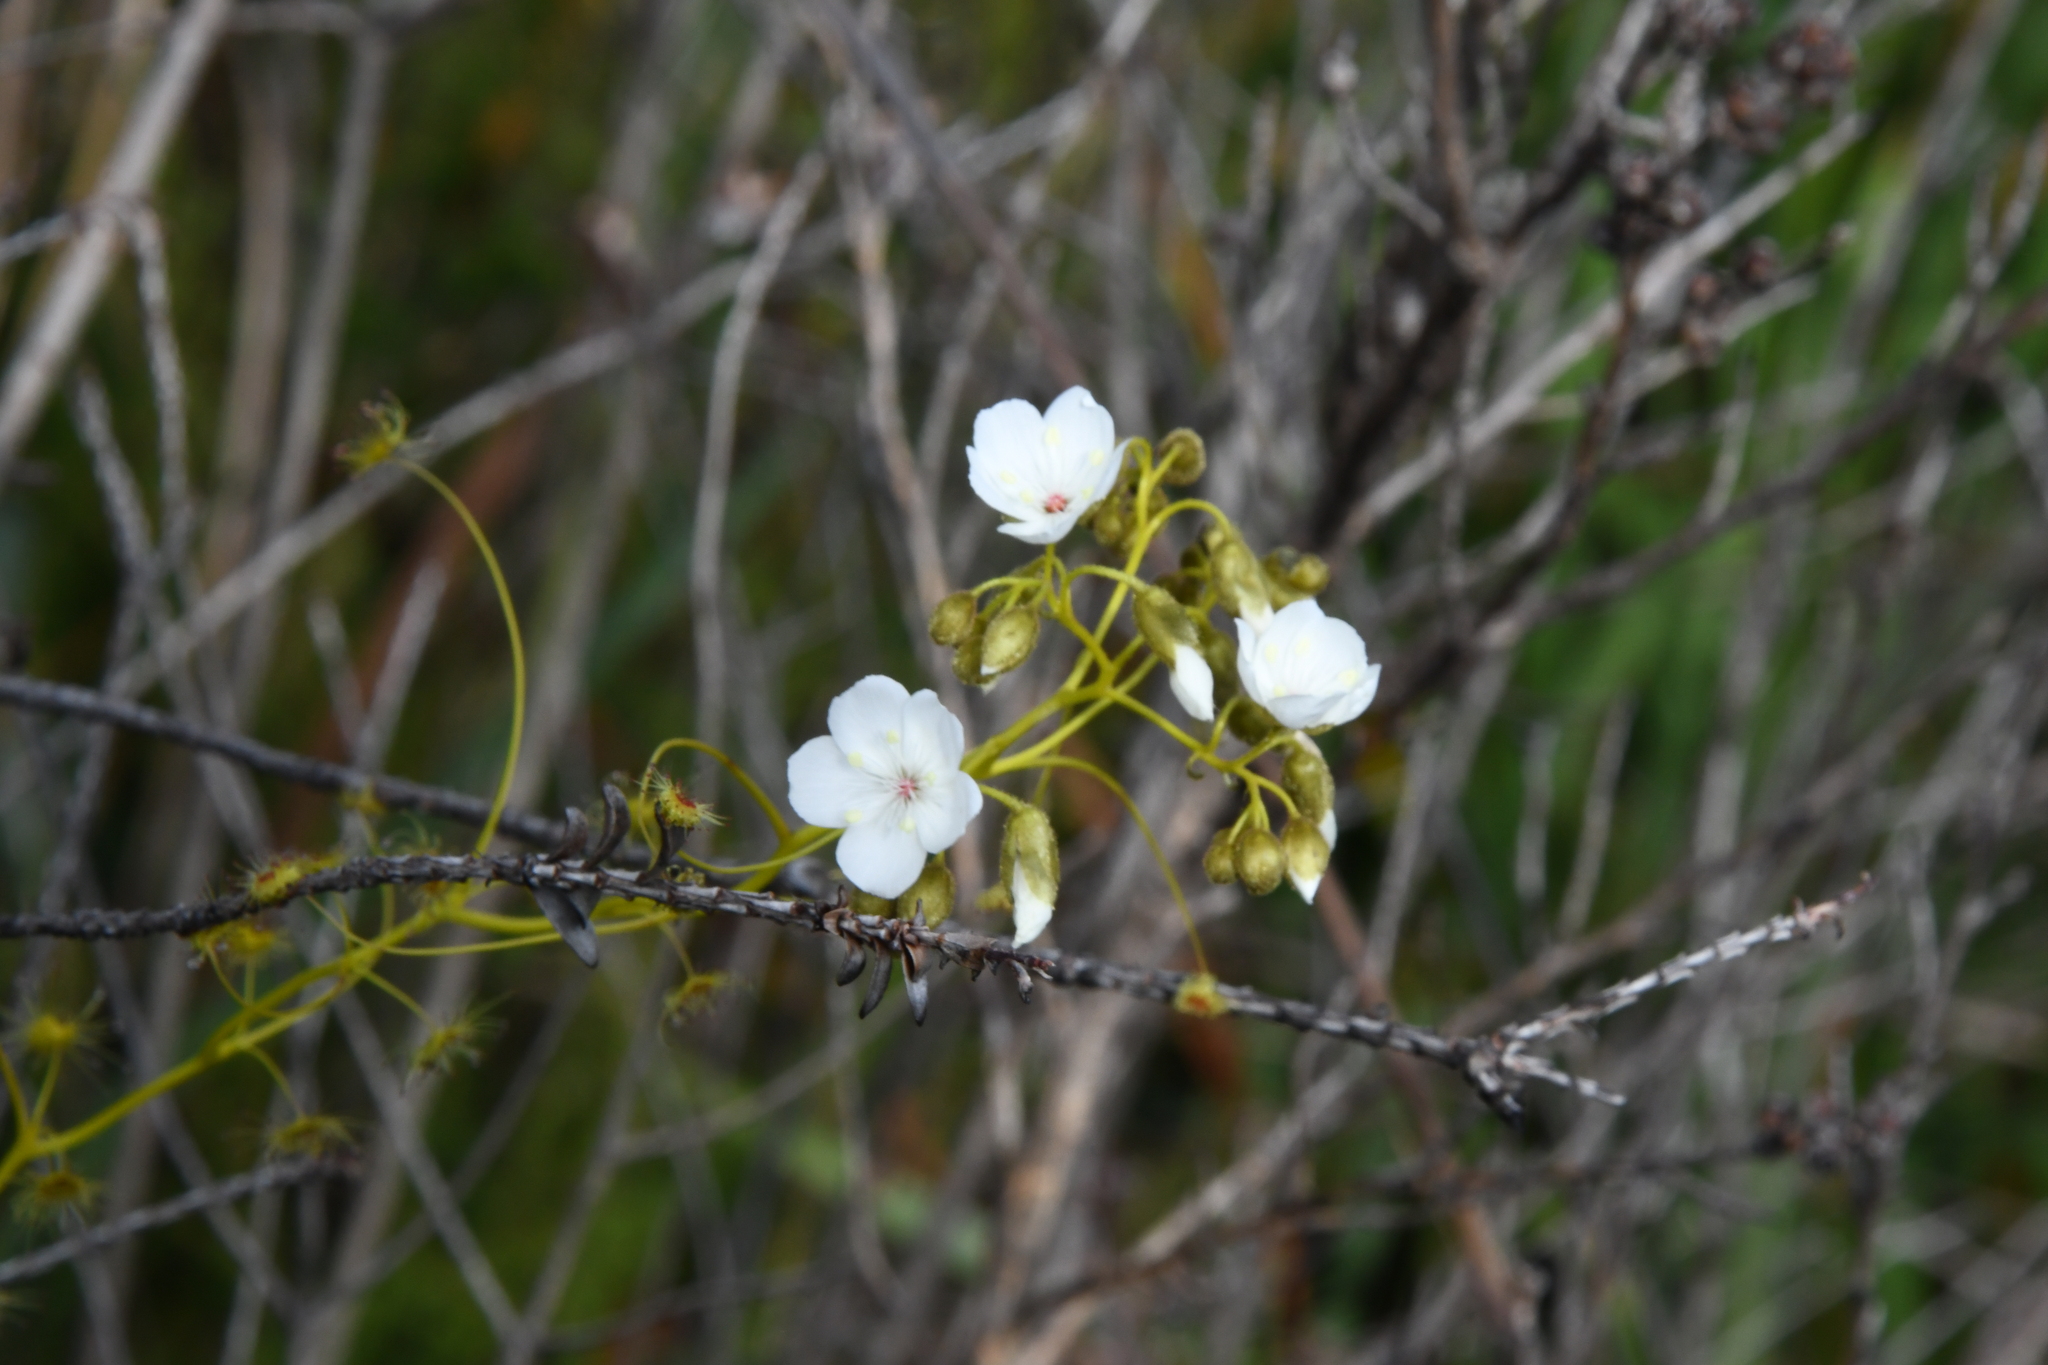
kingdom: Plantae
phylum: Tracheophyta
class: Magnoliopsida
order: Caryophyllales
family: Droseraceae
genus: Drosera
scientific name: Drosera erythrogyne
